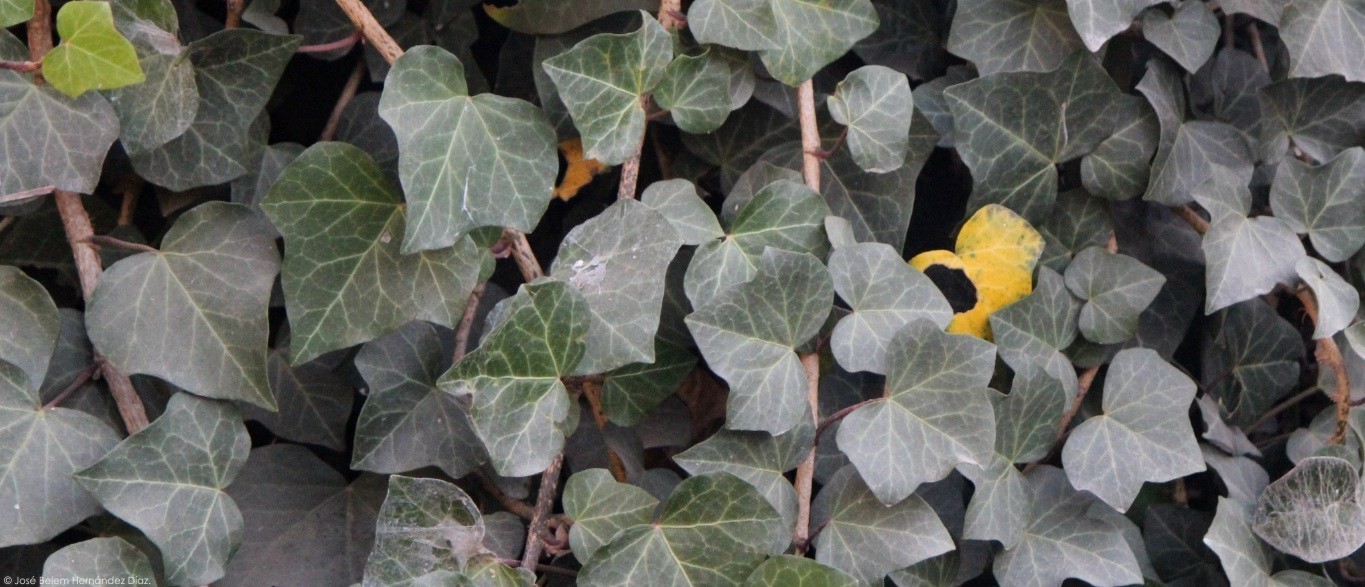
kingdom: Plantae
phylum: Tracheophyta
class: Magnoliopsida
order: Apiales
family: Araliaceae
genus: Hedera
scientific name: Hedera helix
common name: Ivy
